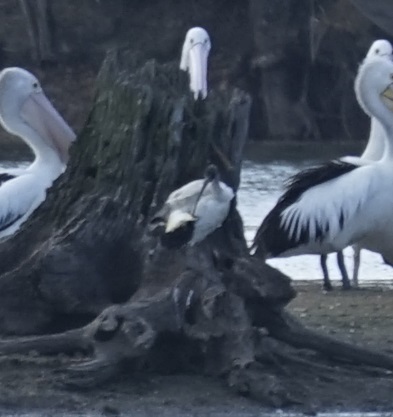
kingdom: Animalia
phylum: Chordata
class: Aves
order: Pelecaniformes
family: Threskiornithidae
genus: Threskiornis
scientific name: Threskiornis molucca
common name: Australian white ibis
